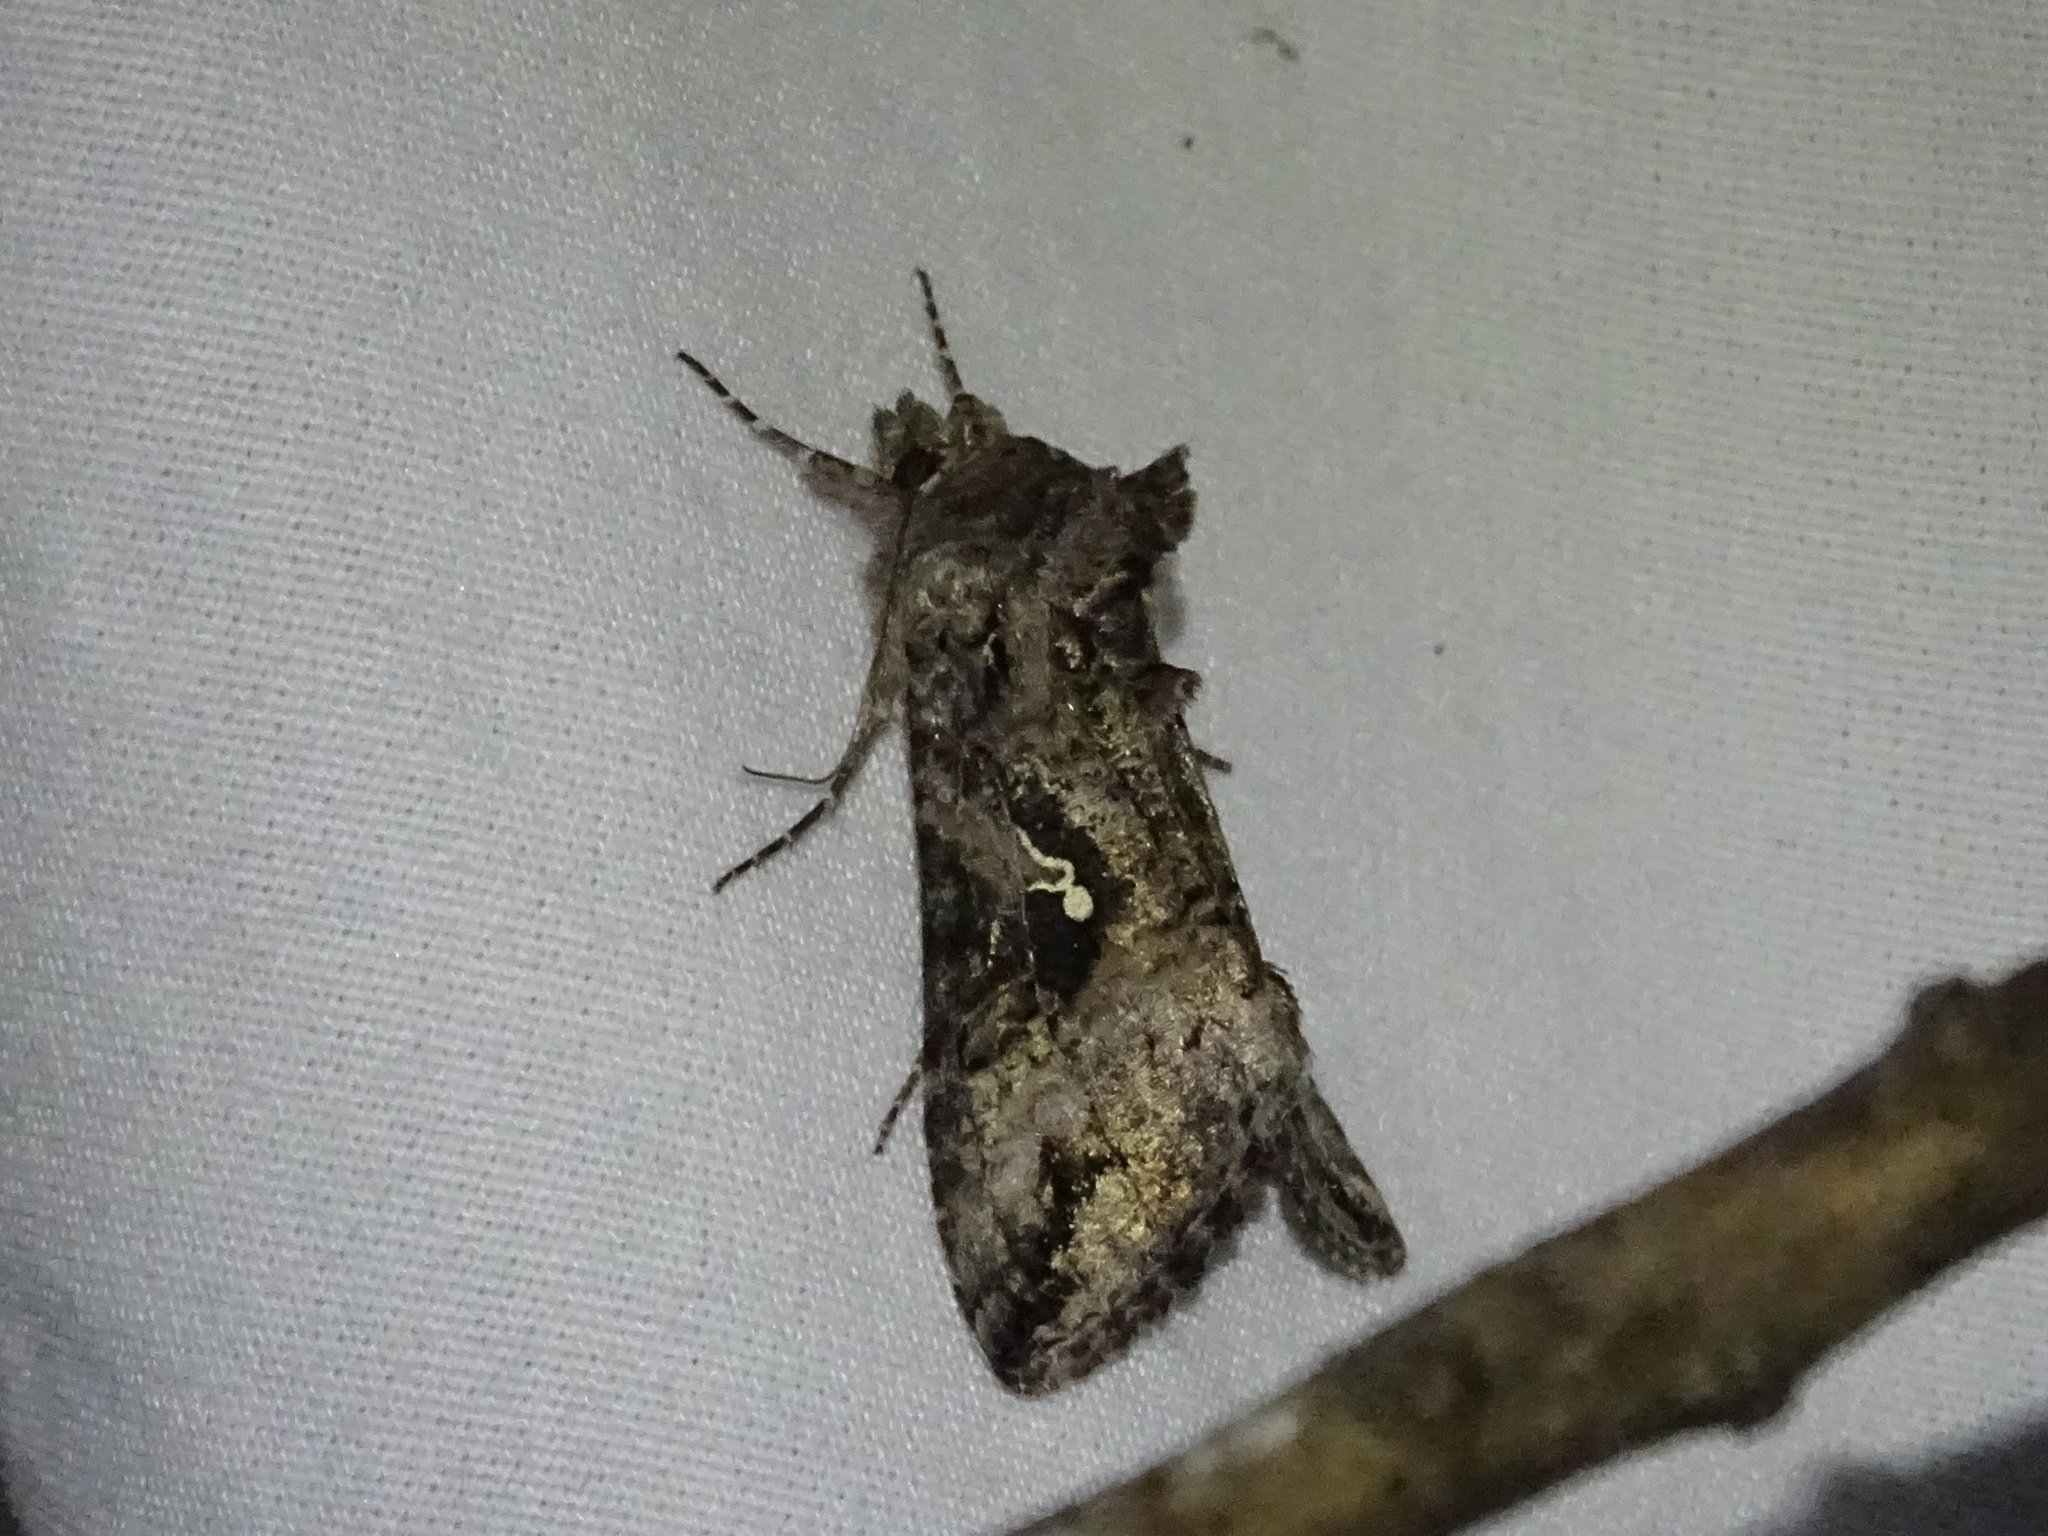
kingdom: Animalia
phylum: Arthropoda
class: Insecta
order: Lepidoptera
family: Noctuidae
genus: Rachiplusia
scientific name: Rachiplusia ou
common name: Gray looper moth
